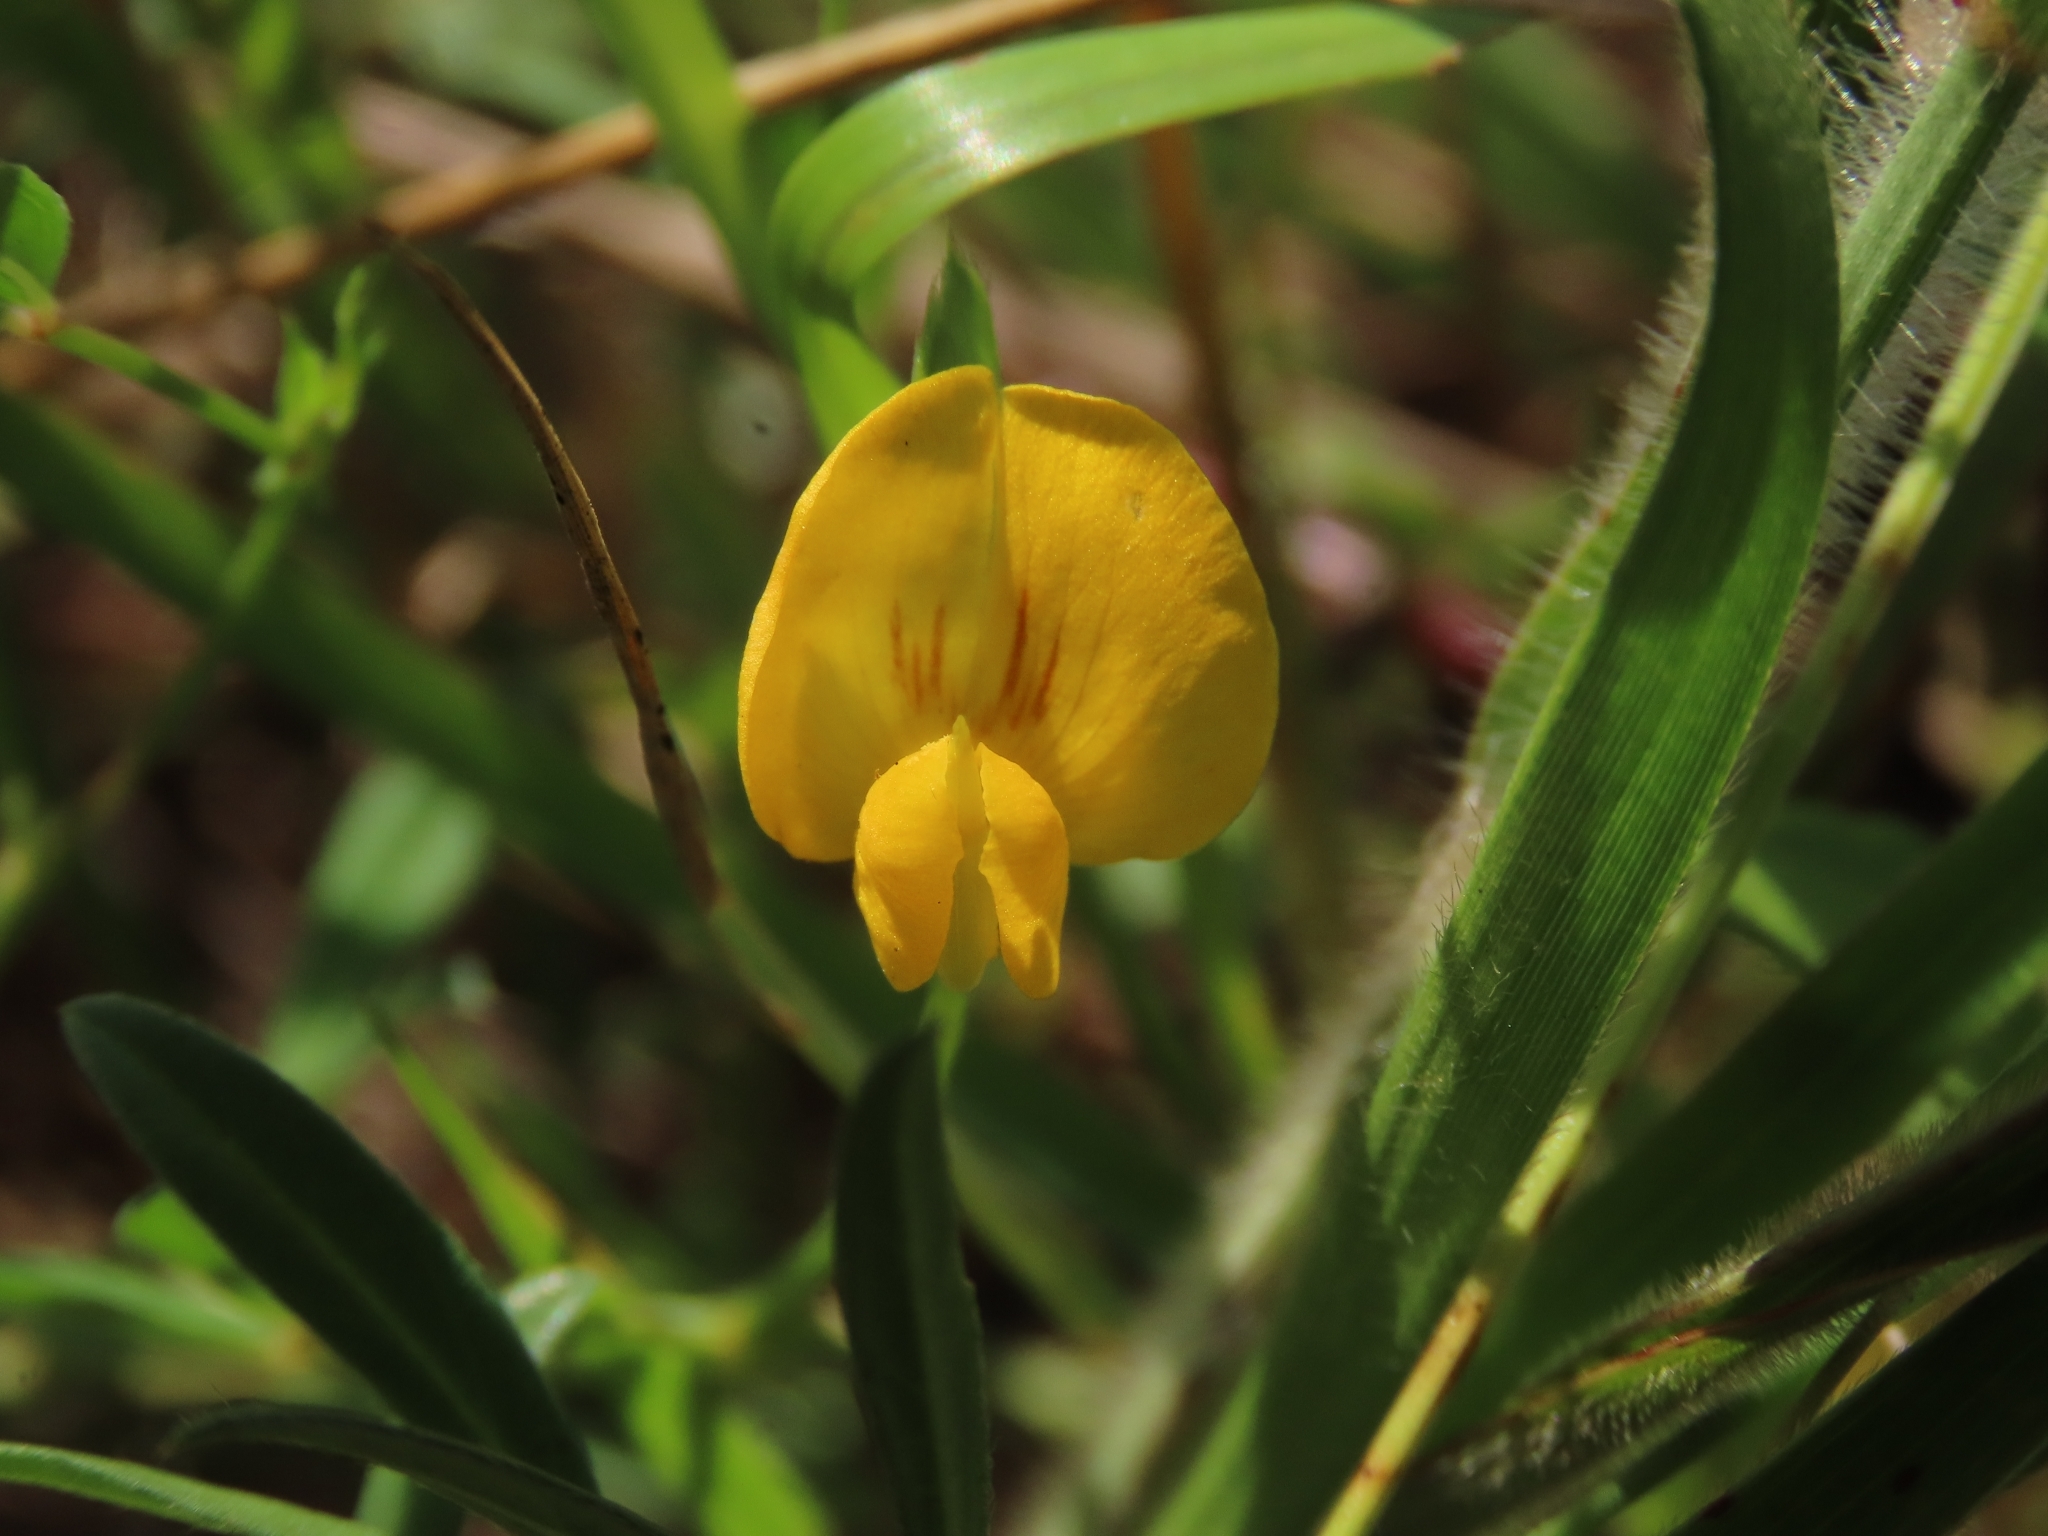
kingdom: Plantae
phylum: Tracheophyta
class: Magnoliopsida
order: Fabales
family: Fabaceae
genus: Zornia
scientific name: Zornia gibbosa
